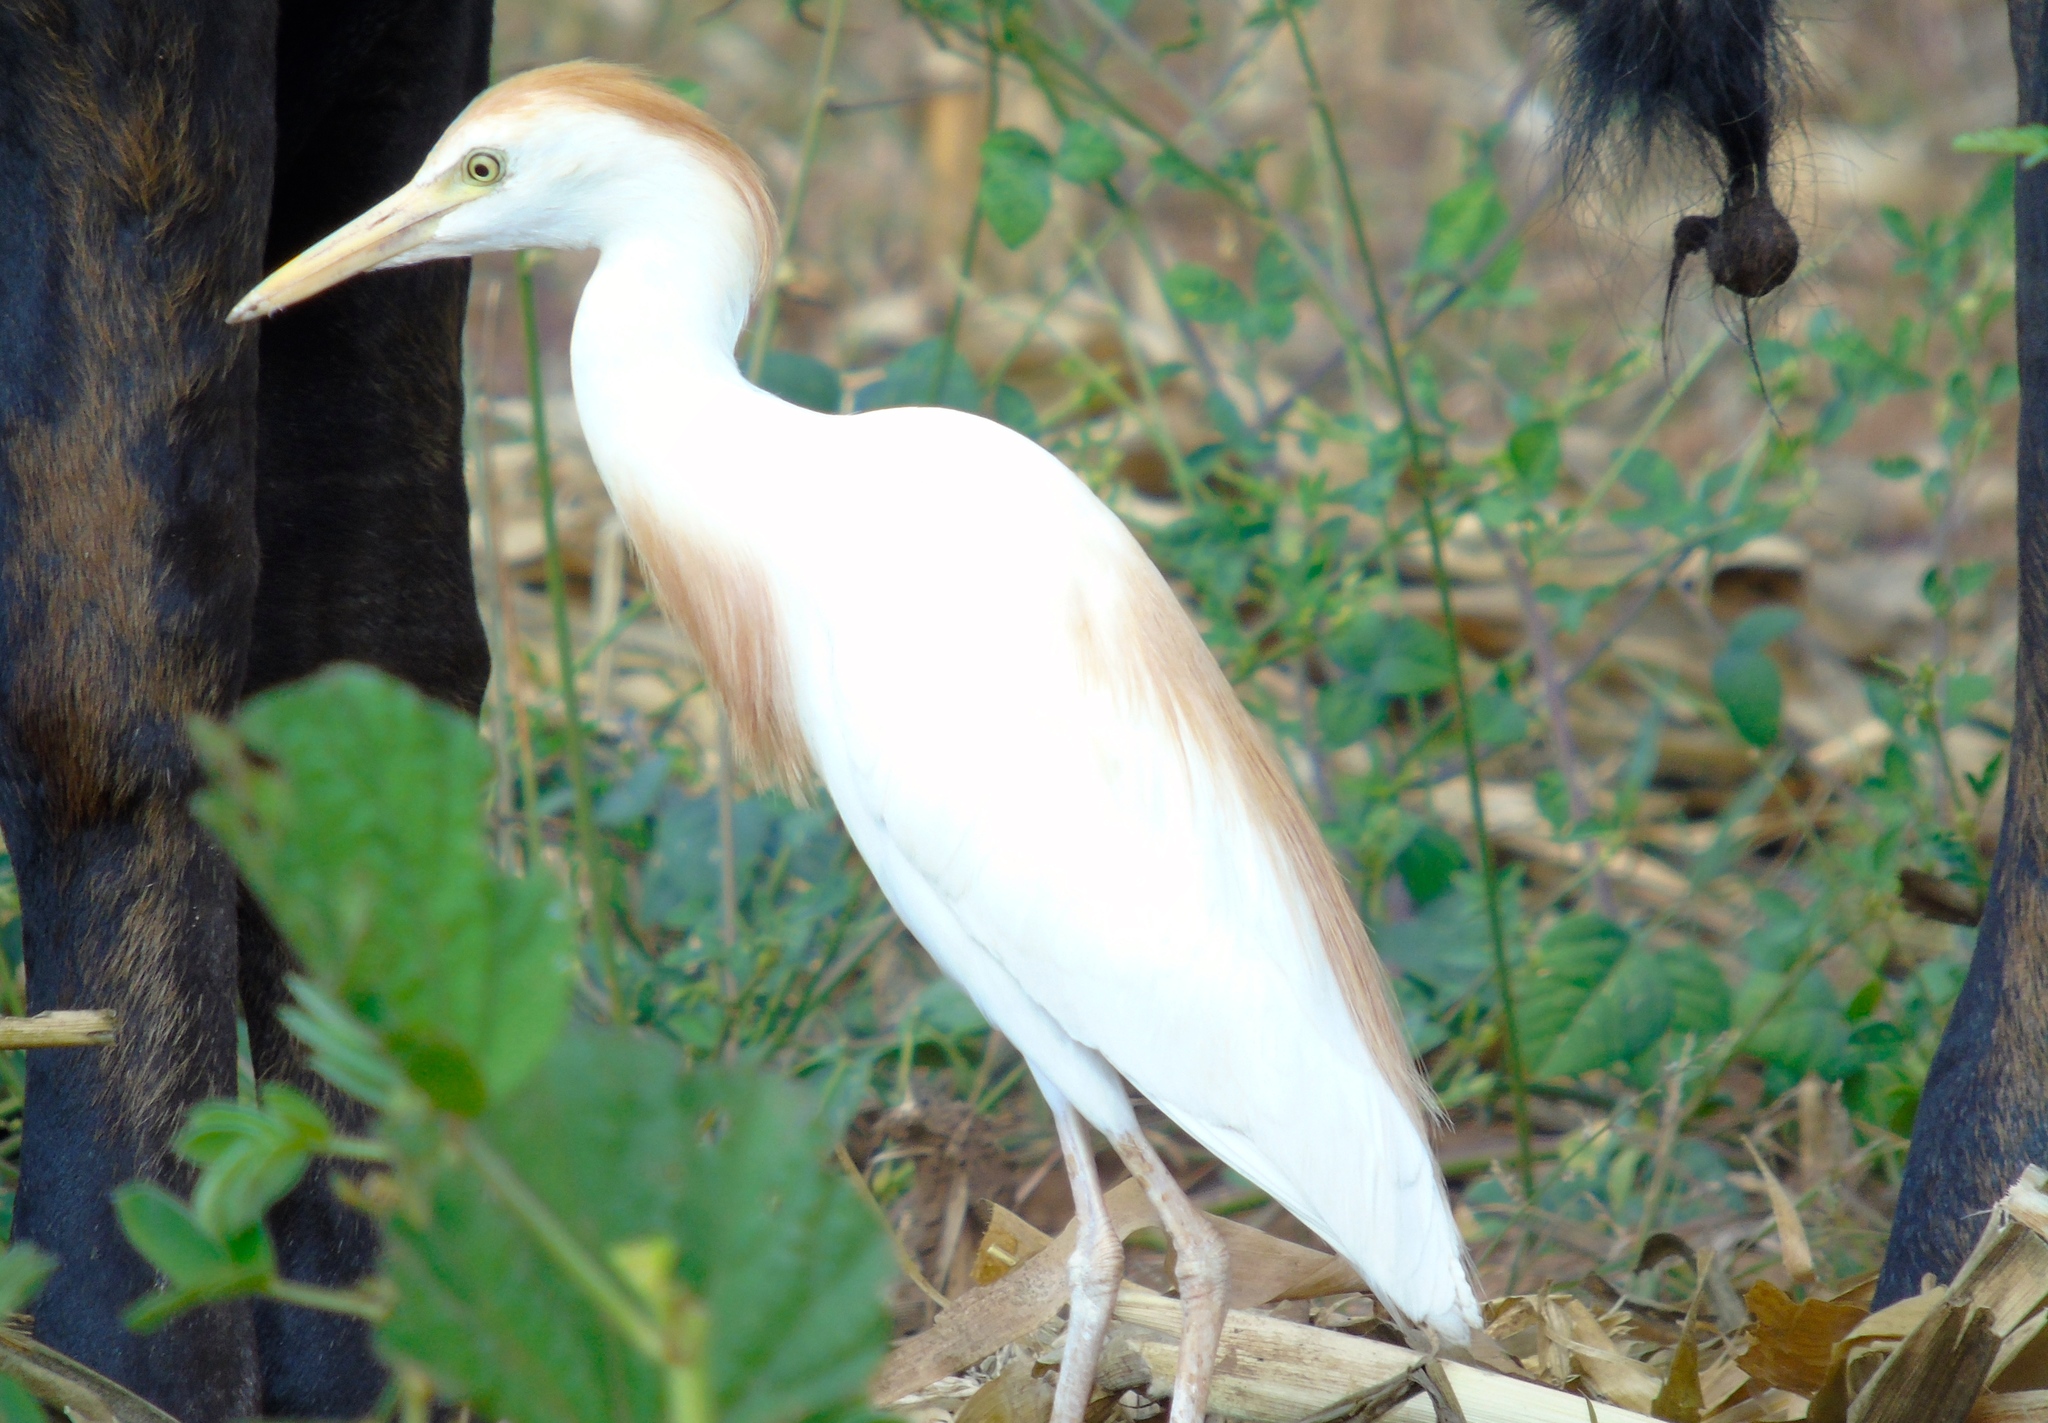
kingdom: Animalia
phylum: Chordata
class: Aves
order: Pelecaniformes
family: Ardeidae
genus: Bubulcus
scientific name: Bubulcus ibis
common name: Cattle egret
